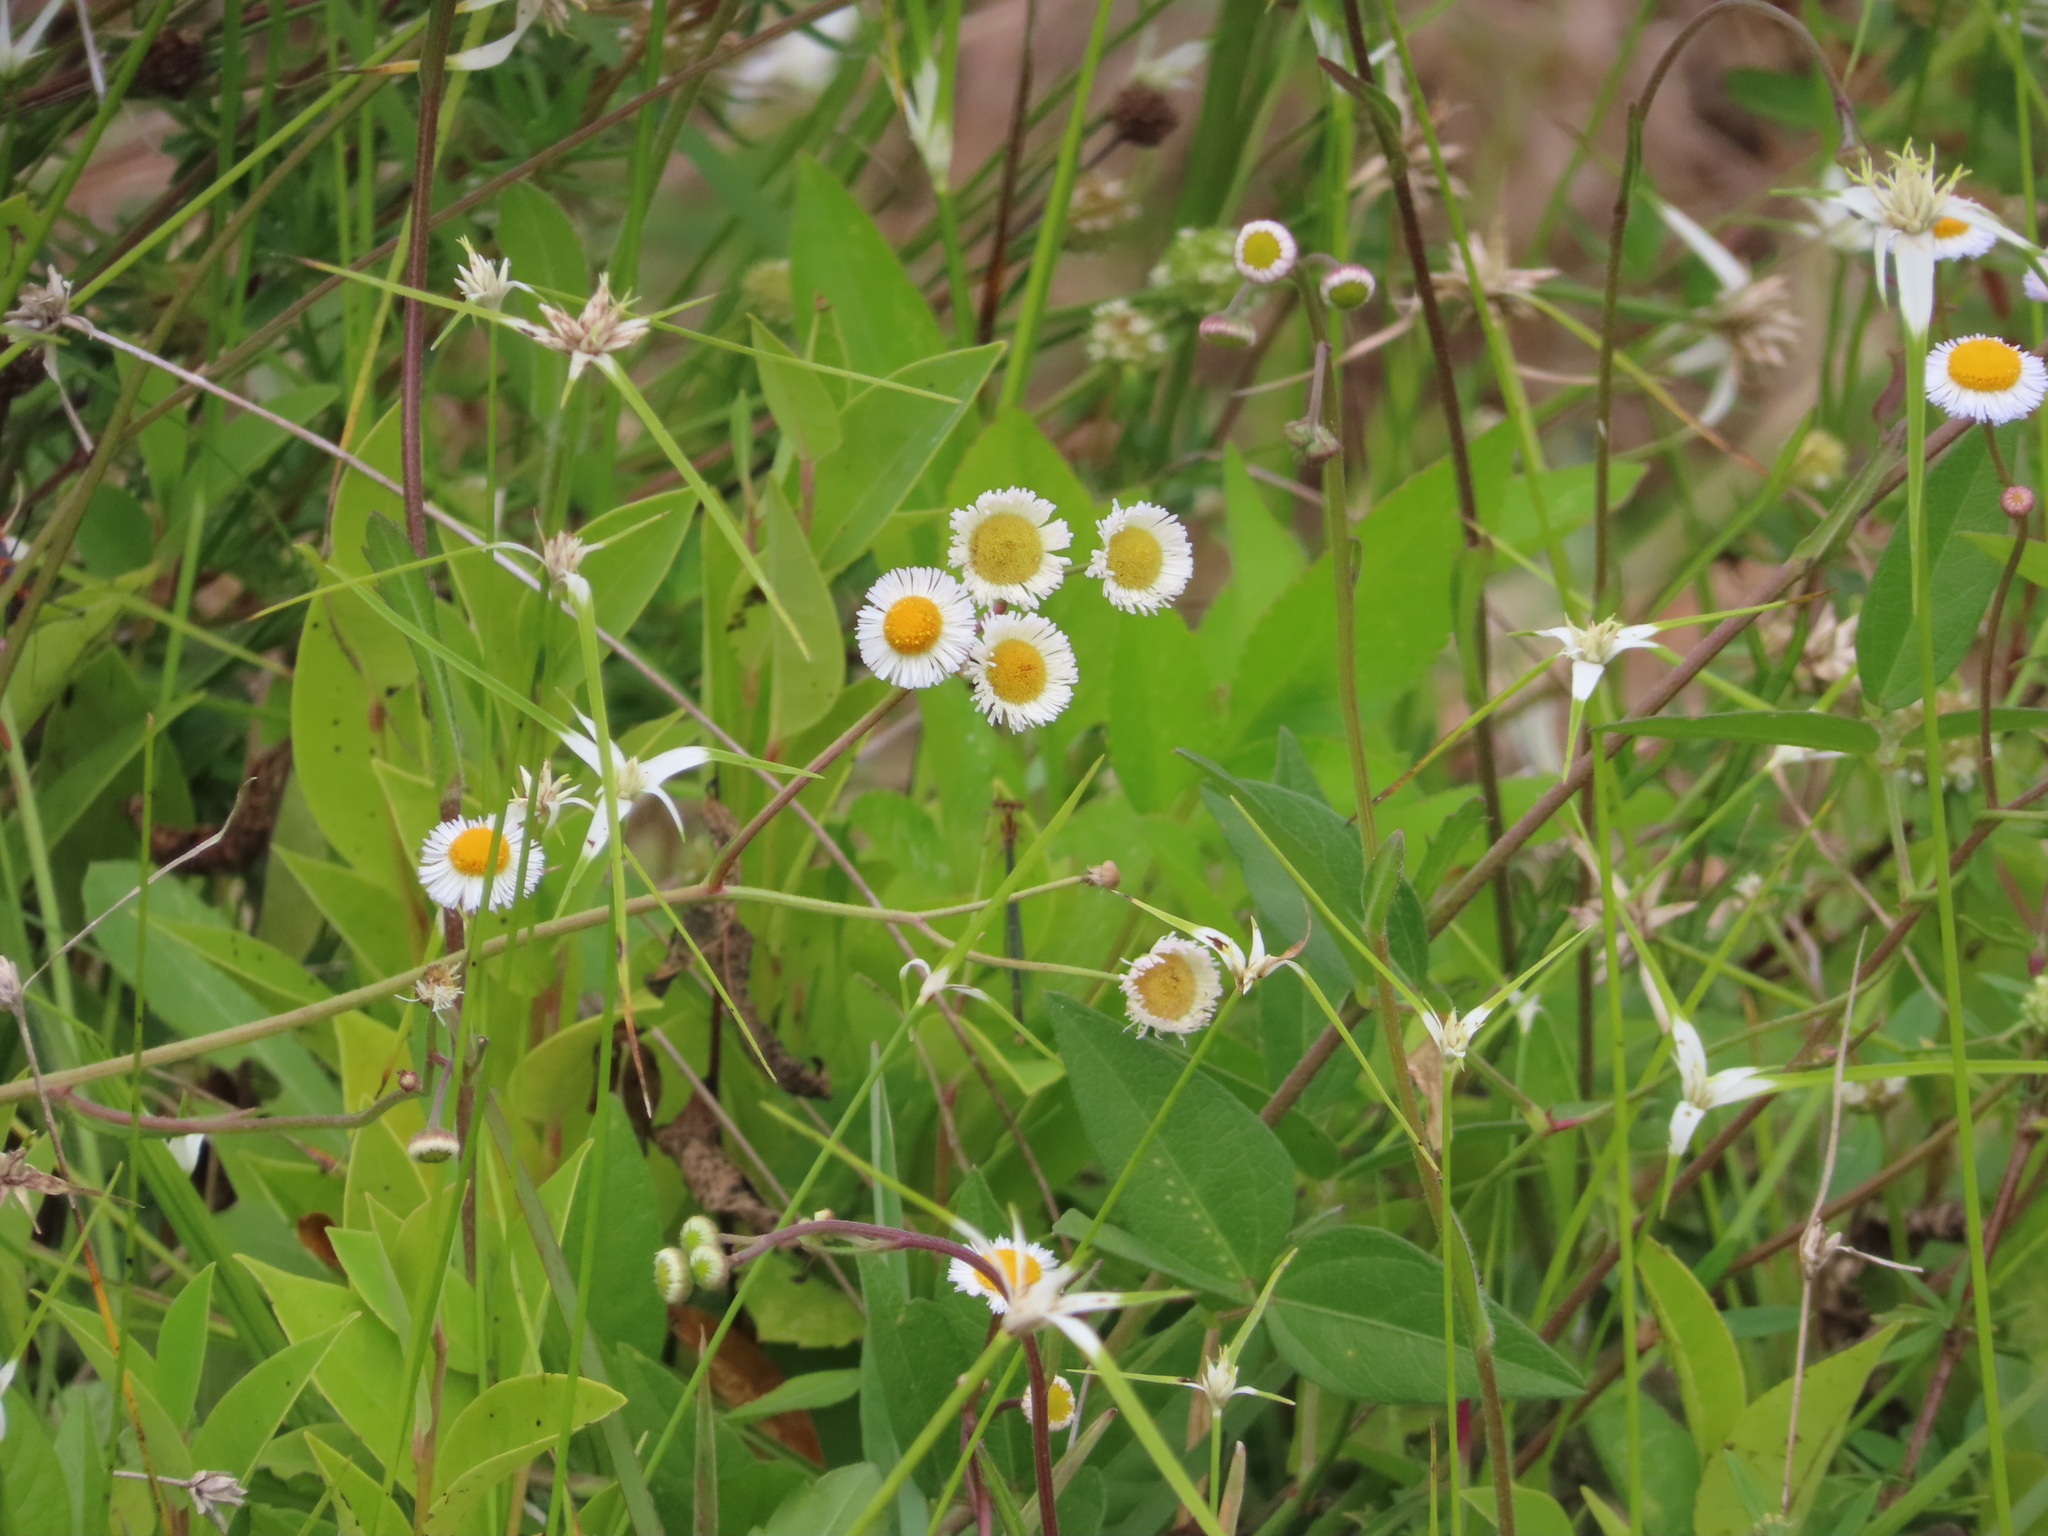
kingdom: Plantae
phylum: Tracheophyta
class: Magnoliopsida
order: Asterales
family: Asteraceae
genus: Erigeron
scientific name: Erigeron quercifolius
